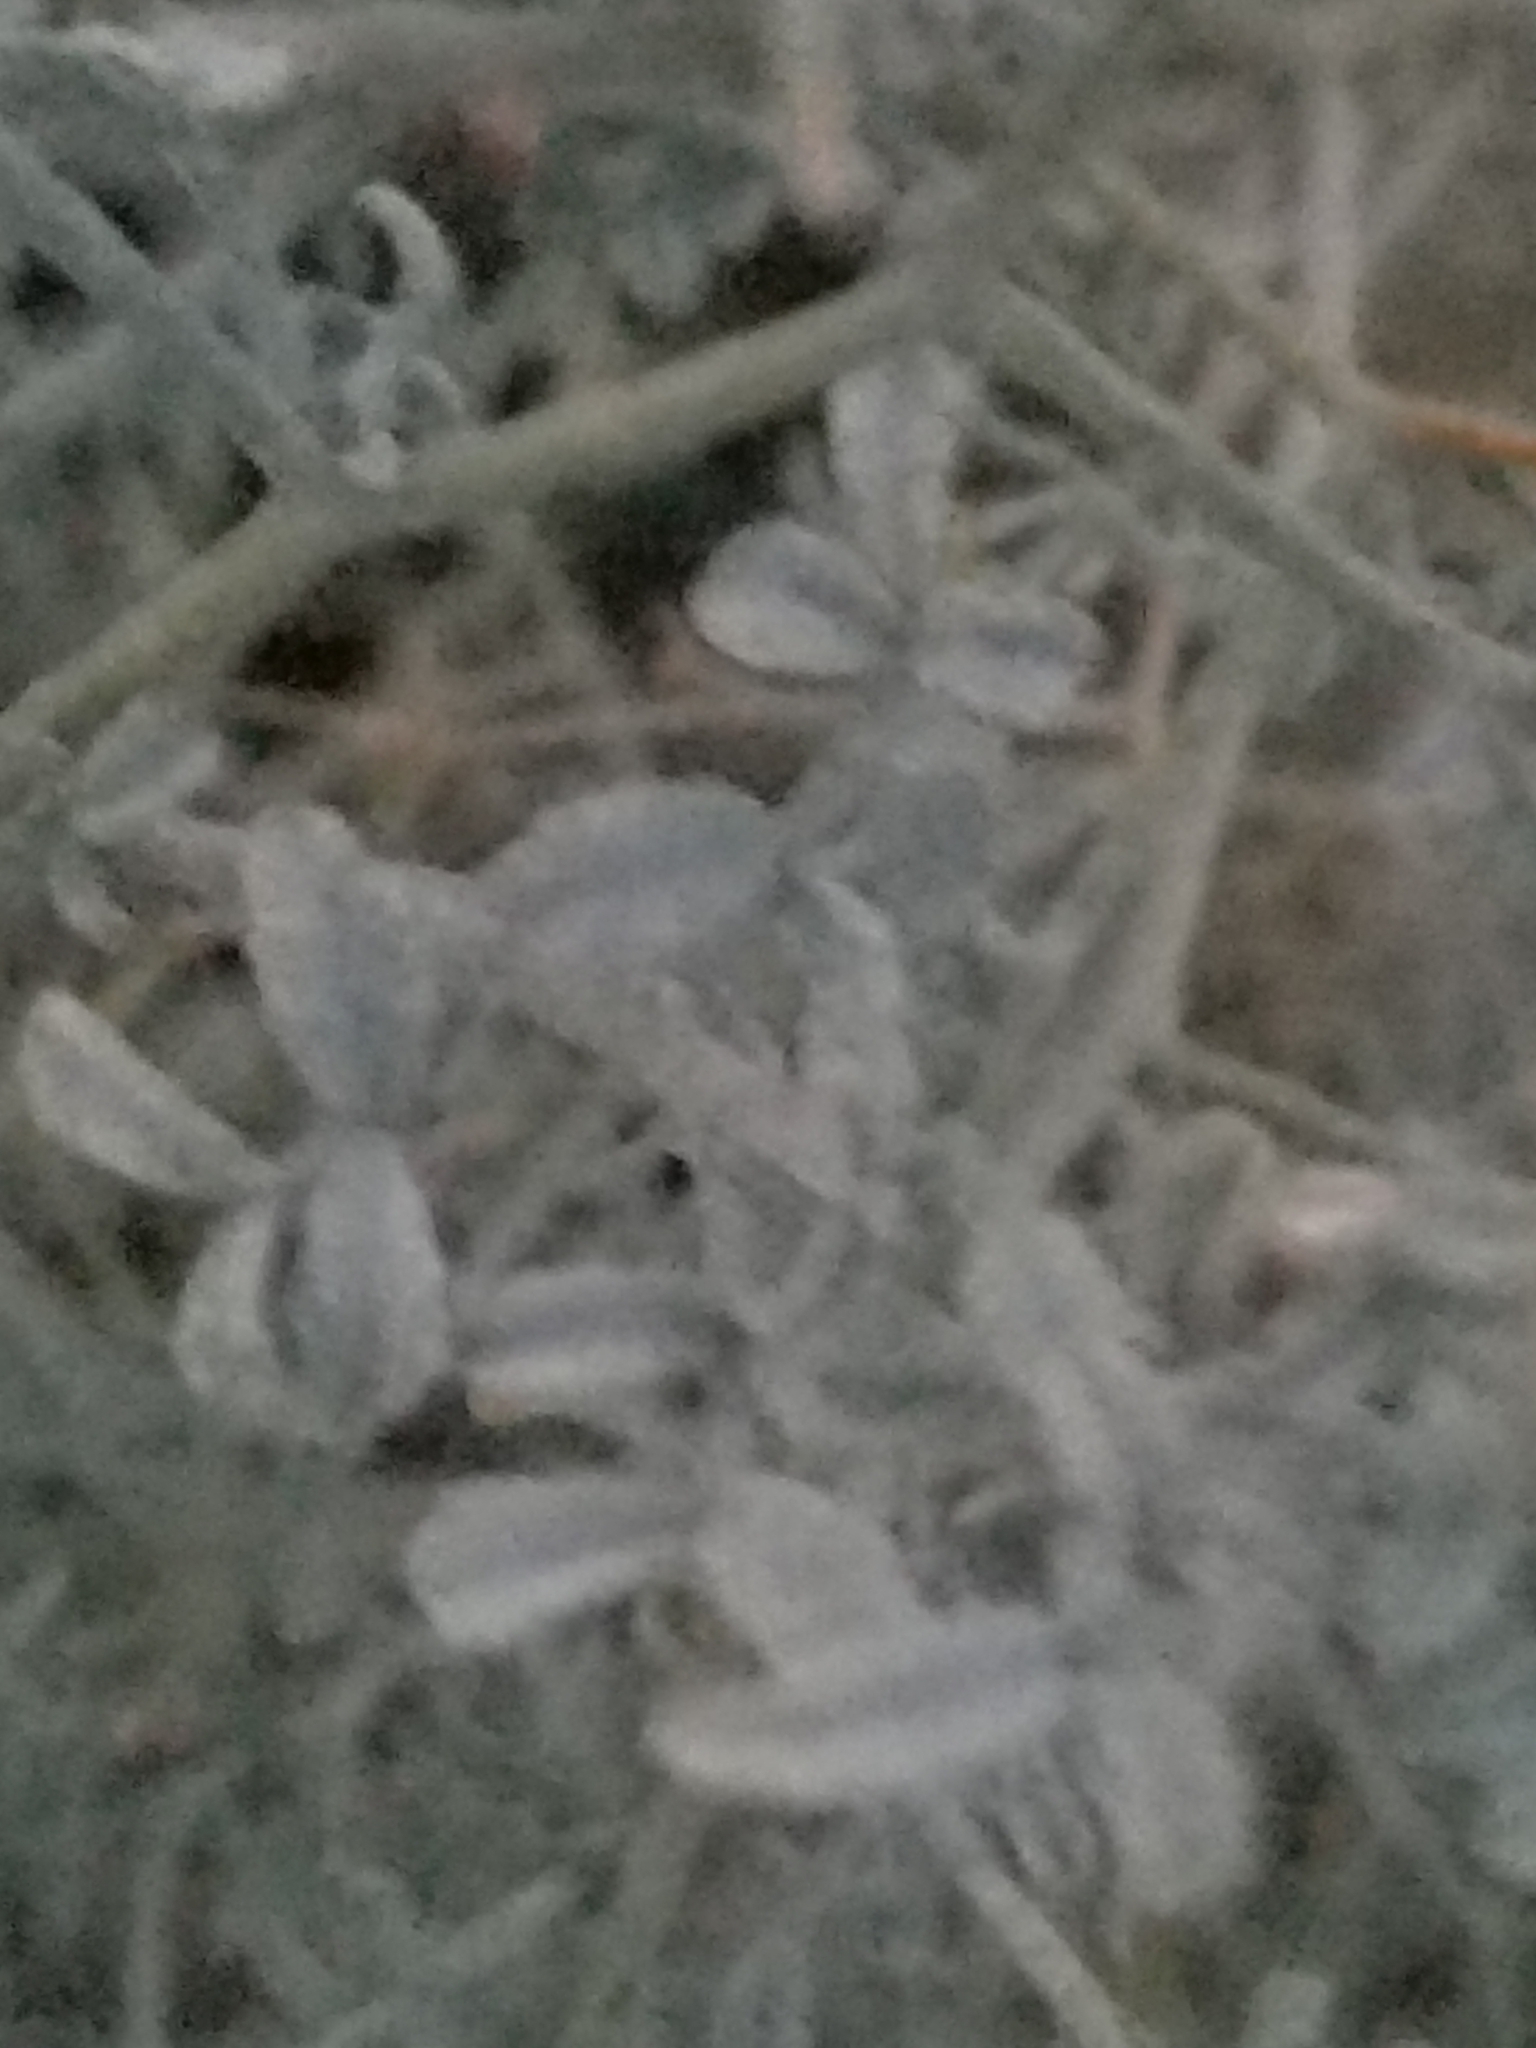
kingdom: Plantae
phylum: Tracheophyta
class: Magnoliopsida
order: Fabales
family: Fabaceae
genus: Psorothamnus
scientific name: Psorothamnus emoryi
